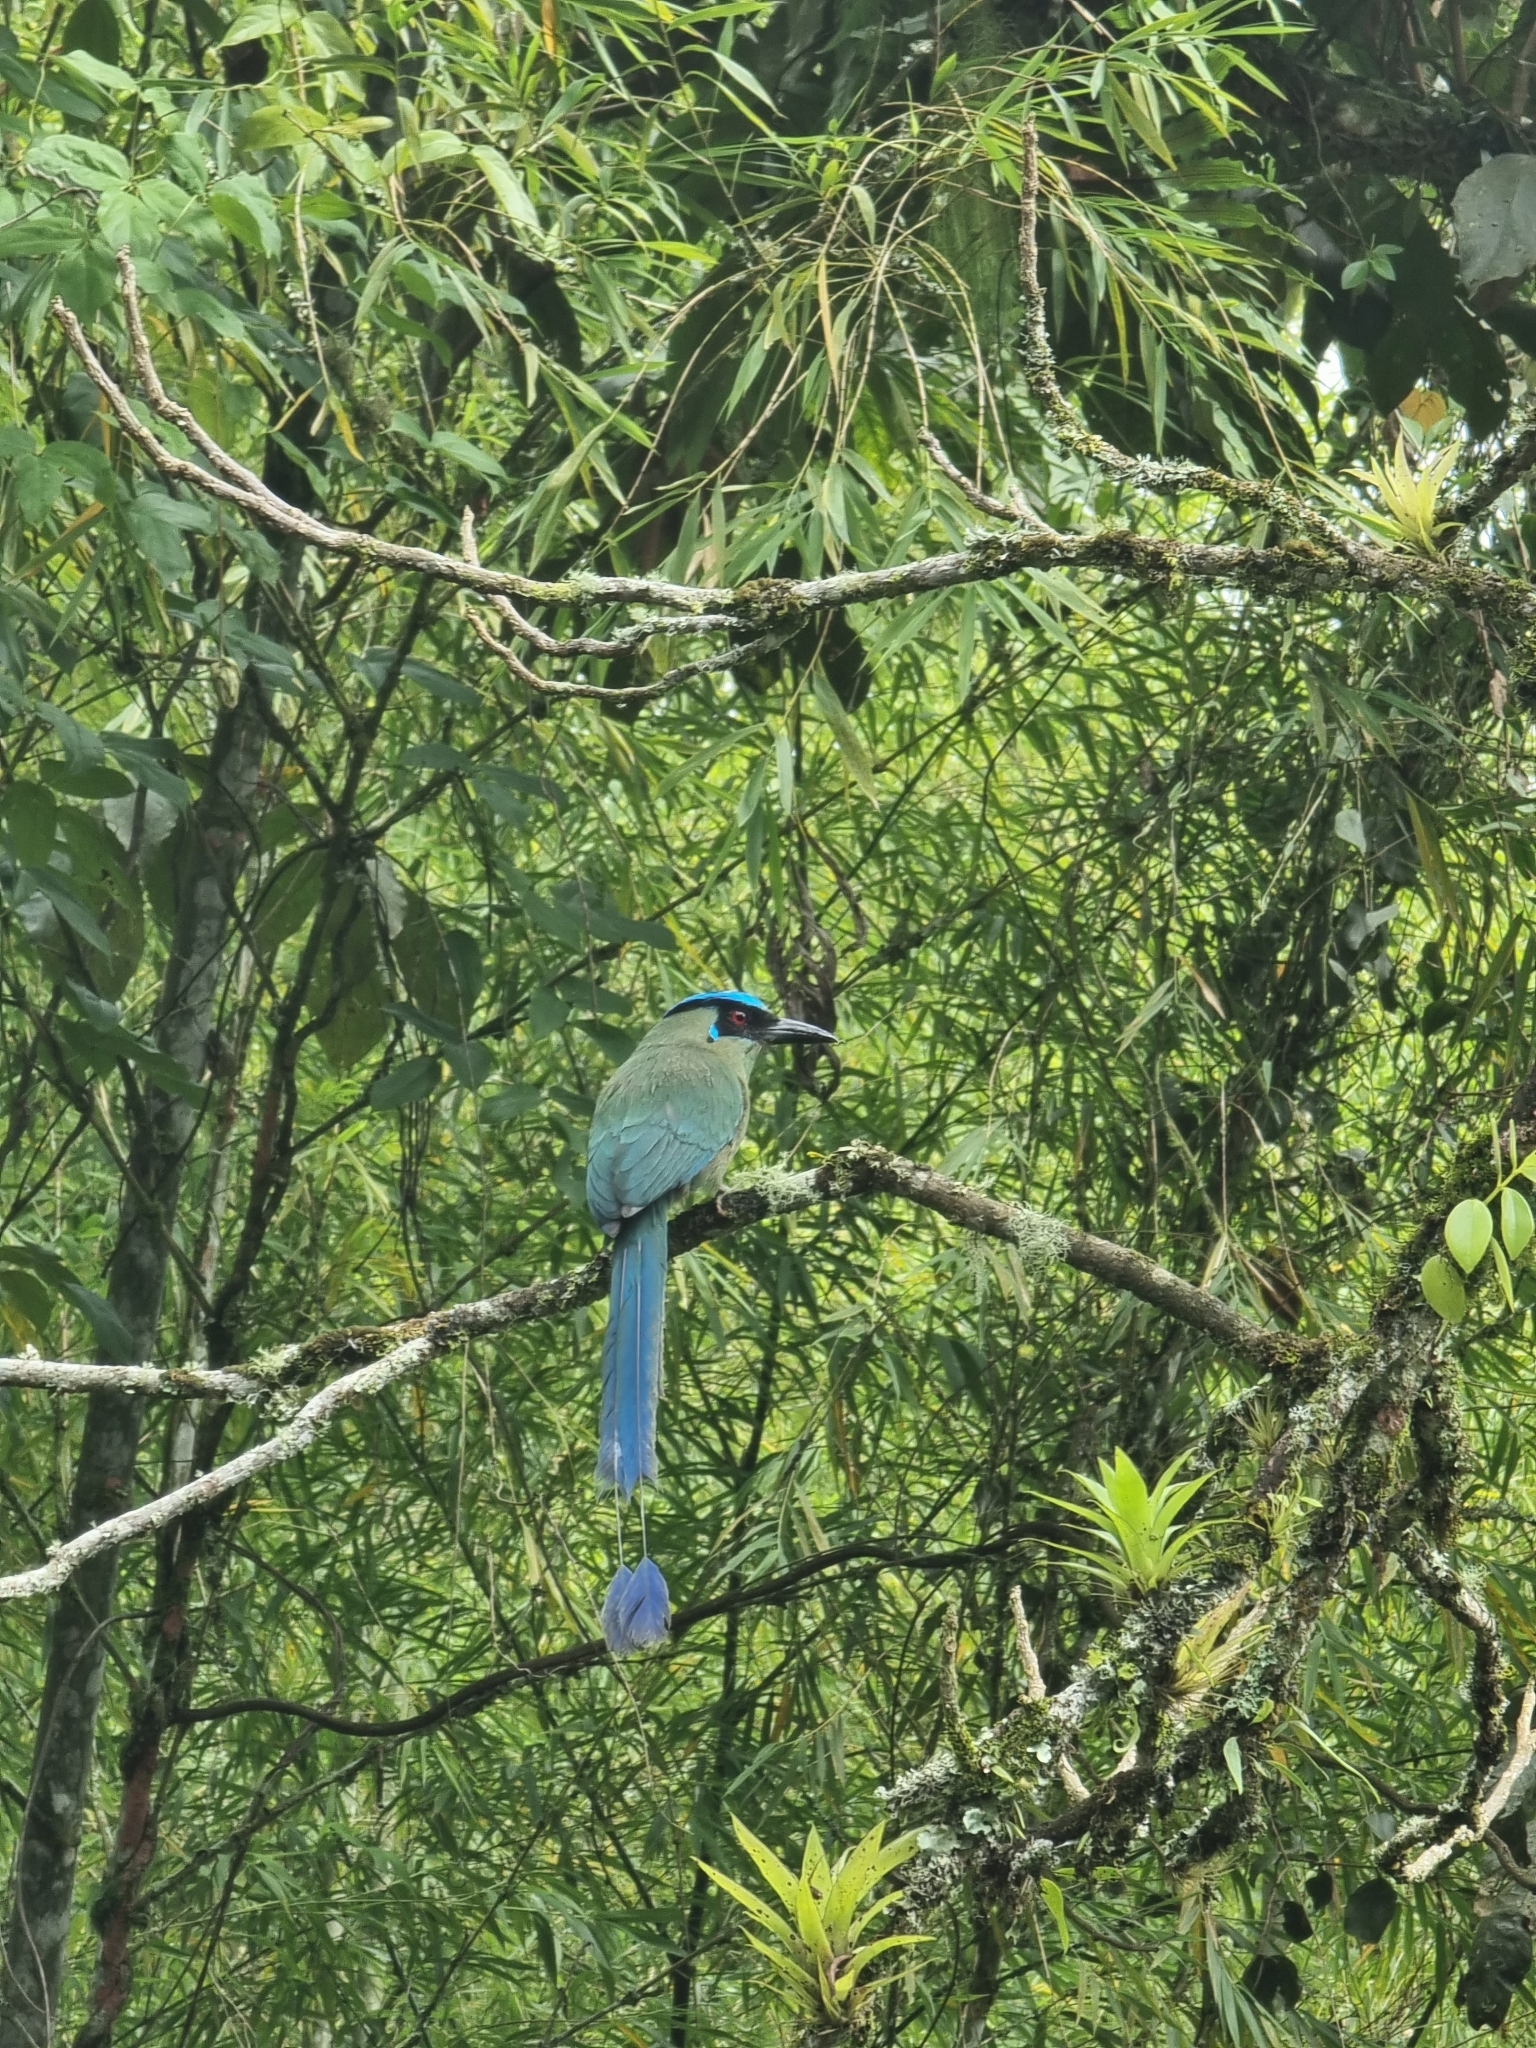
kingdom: Animalia
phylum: Chordata
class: Aves
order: Coraciiformes
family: Momotidae
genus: Momotus
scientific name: Momotus aequatorialis
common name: Andean motmot
